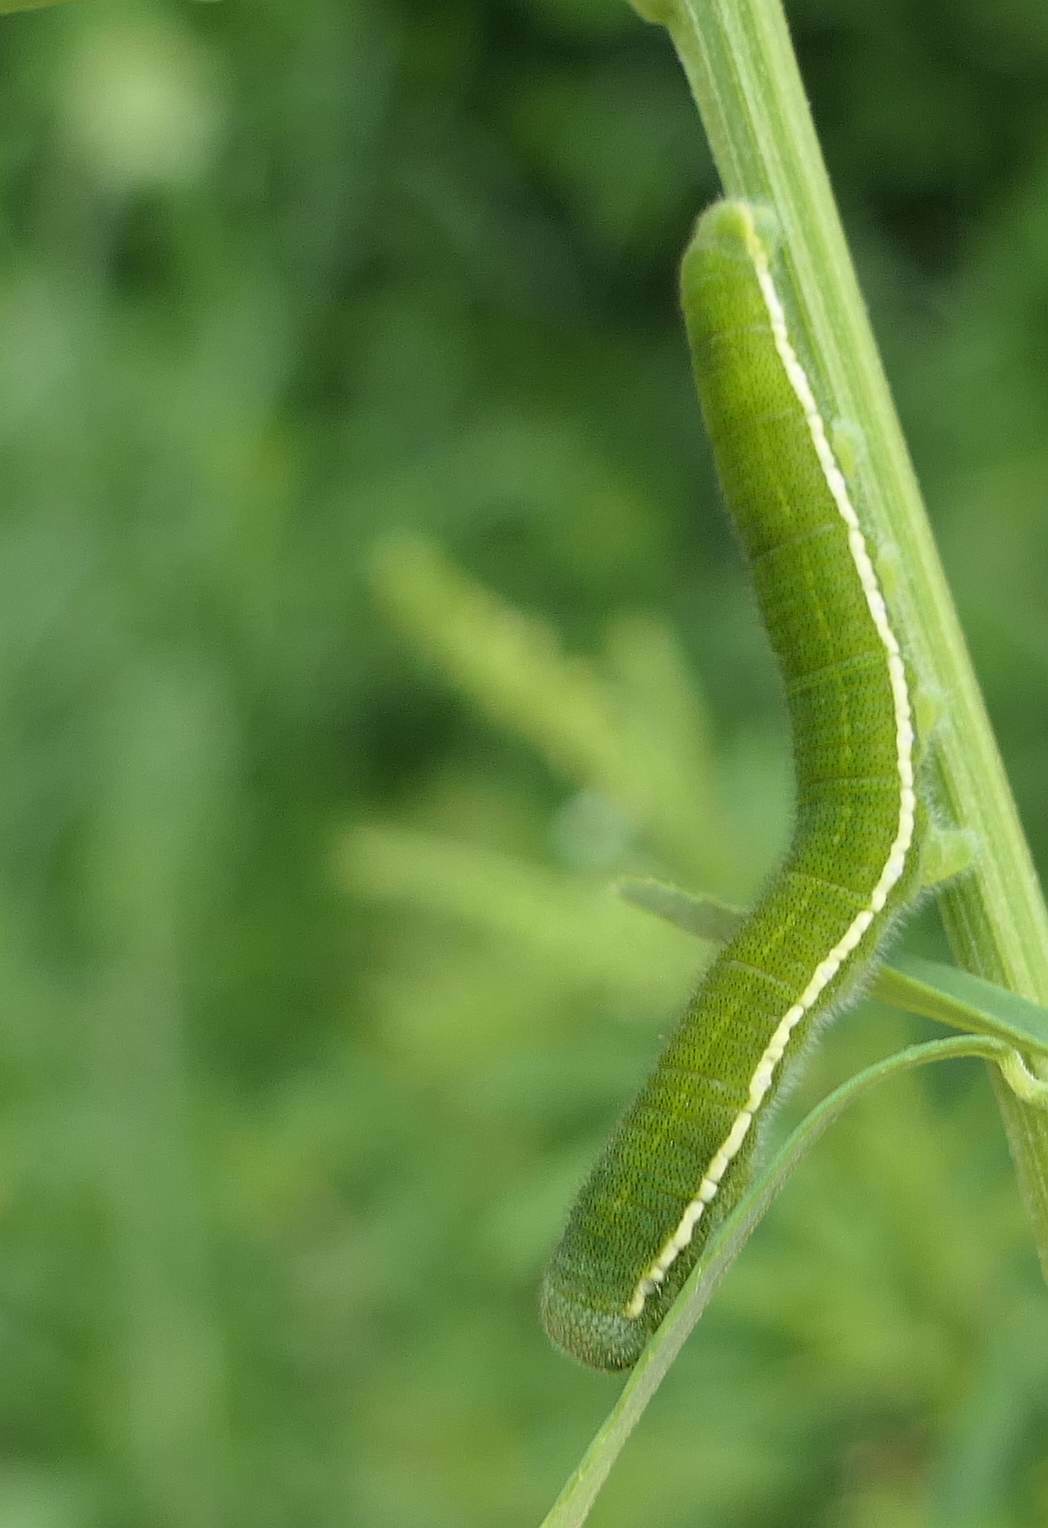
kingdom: Animalia
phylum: Arthropoda
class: Insecta
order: Lepidoptera
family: Pieridae
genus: Colias
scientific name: Colias philodice
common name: Clouded sulphur
